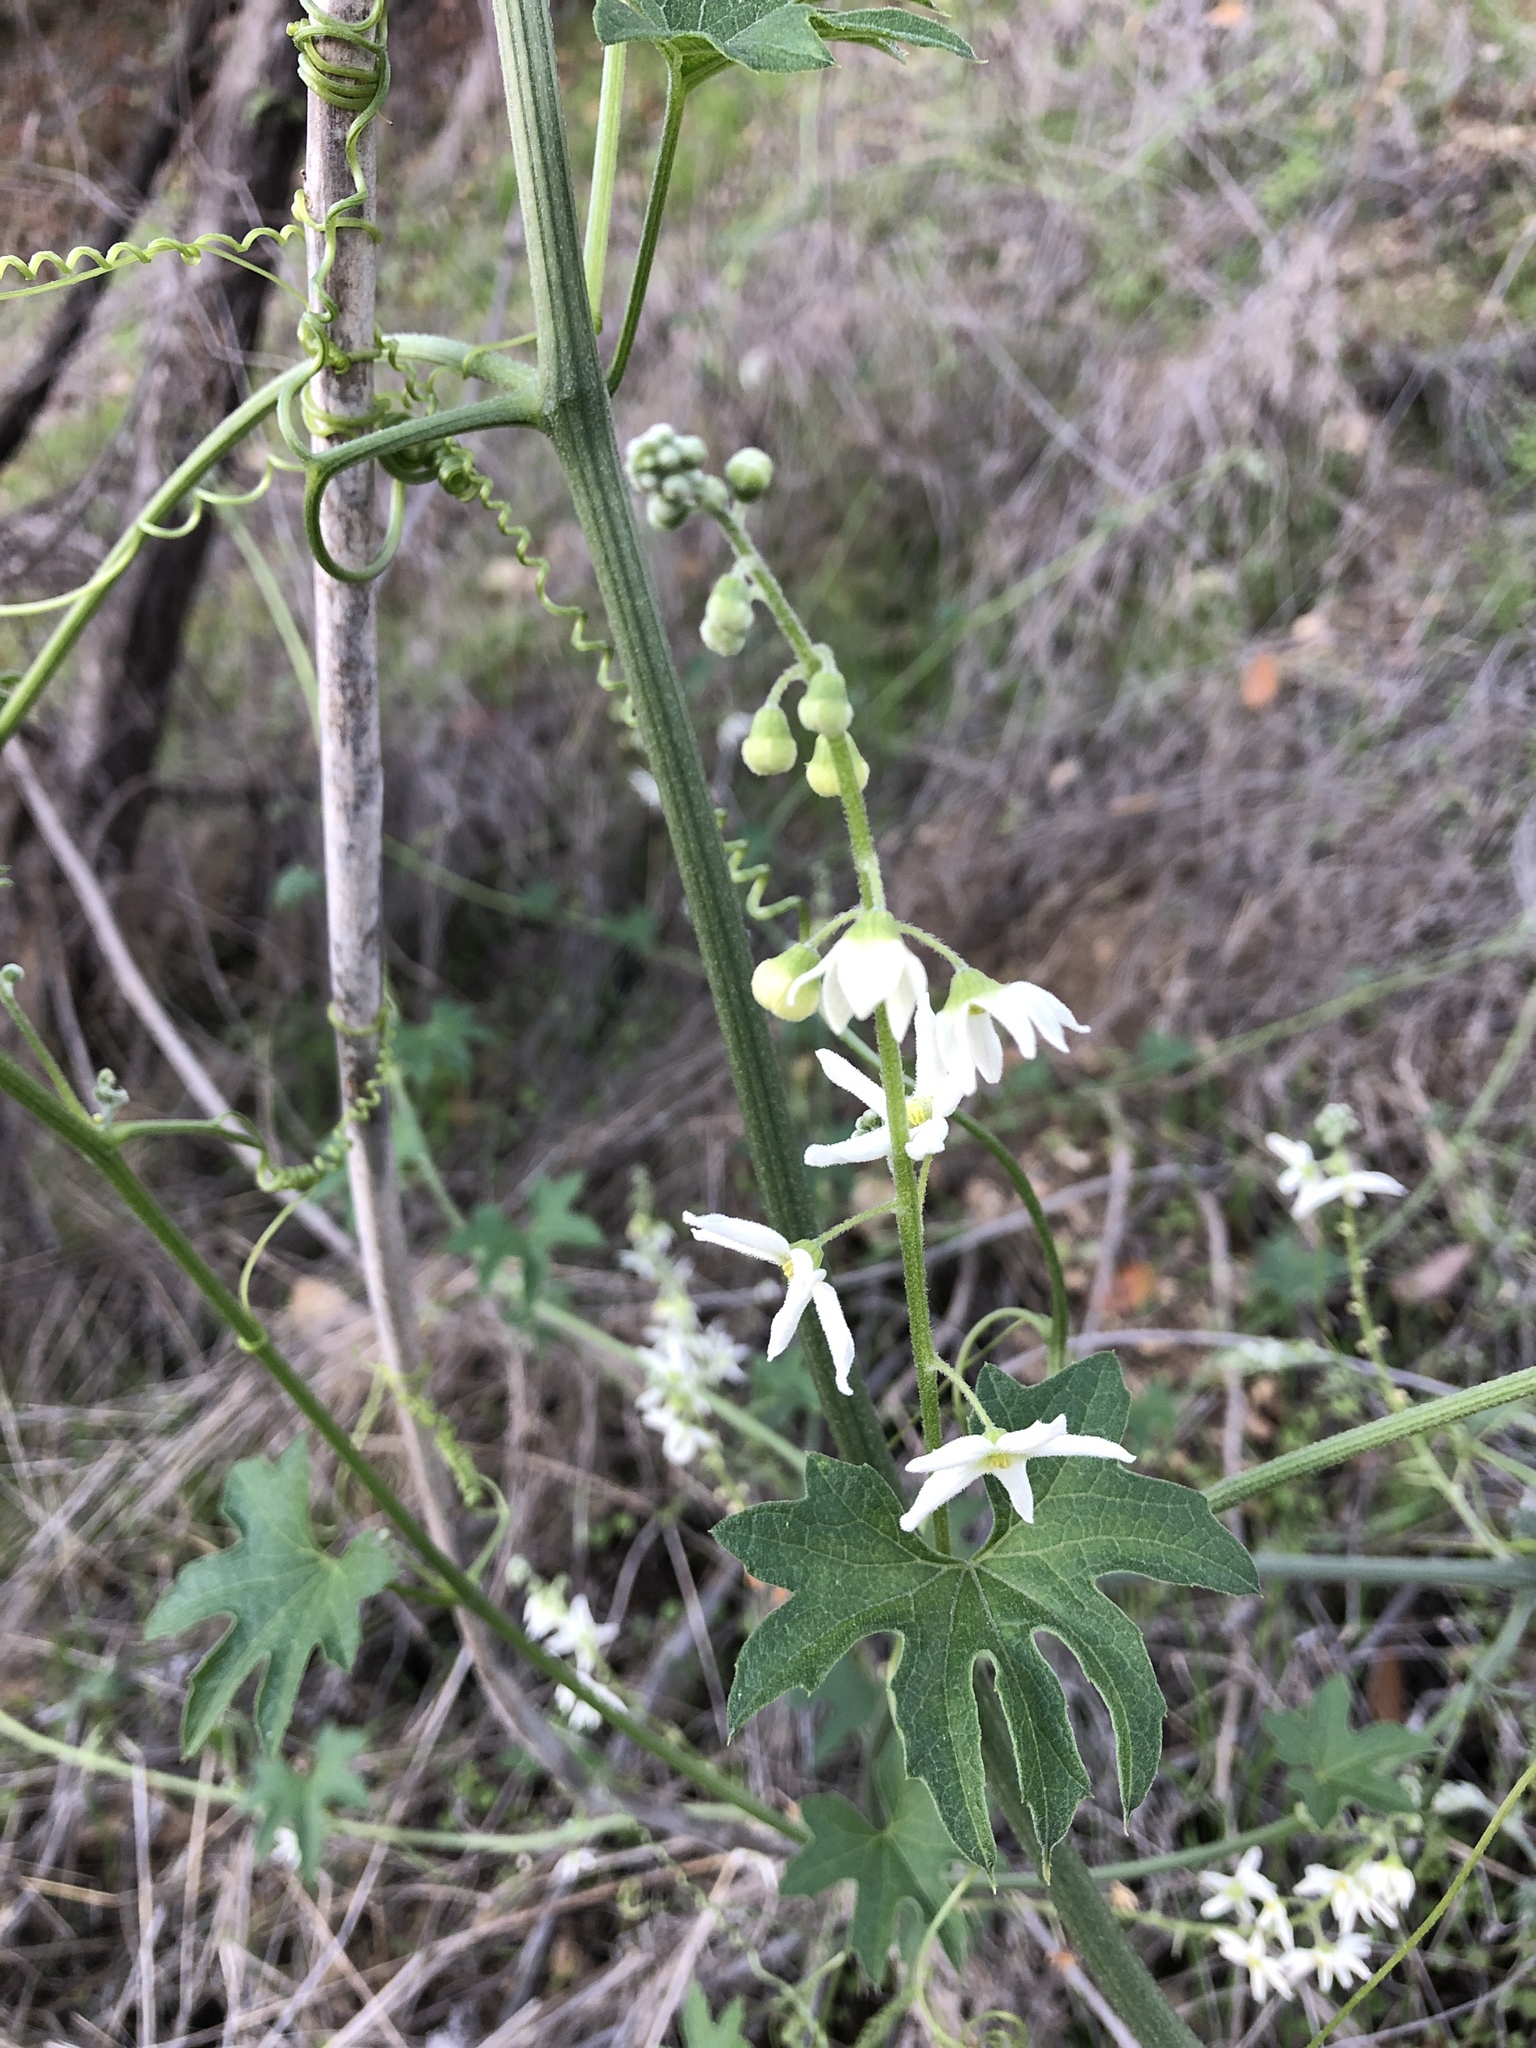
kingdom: Plantae
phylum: Tracheophyta
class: Magnoliopsida
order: Cucurbitales
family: Cucurbitaceae
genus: Marah
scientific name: Marah macrocarpa
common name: Cucamonga manroot
